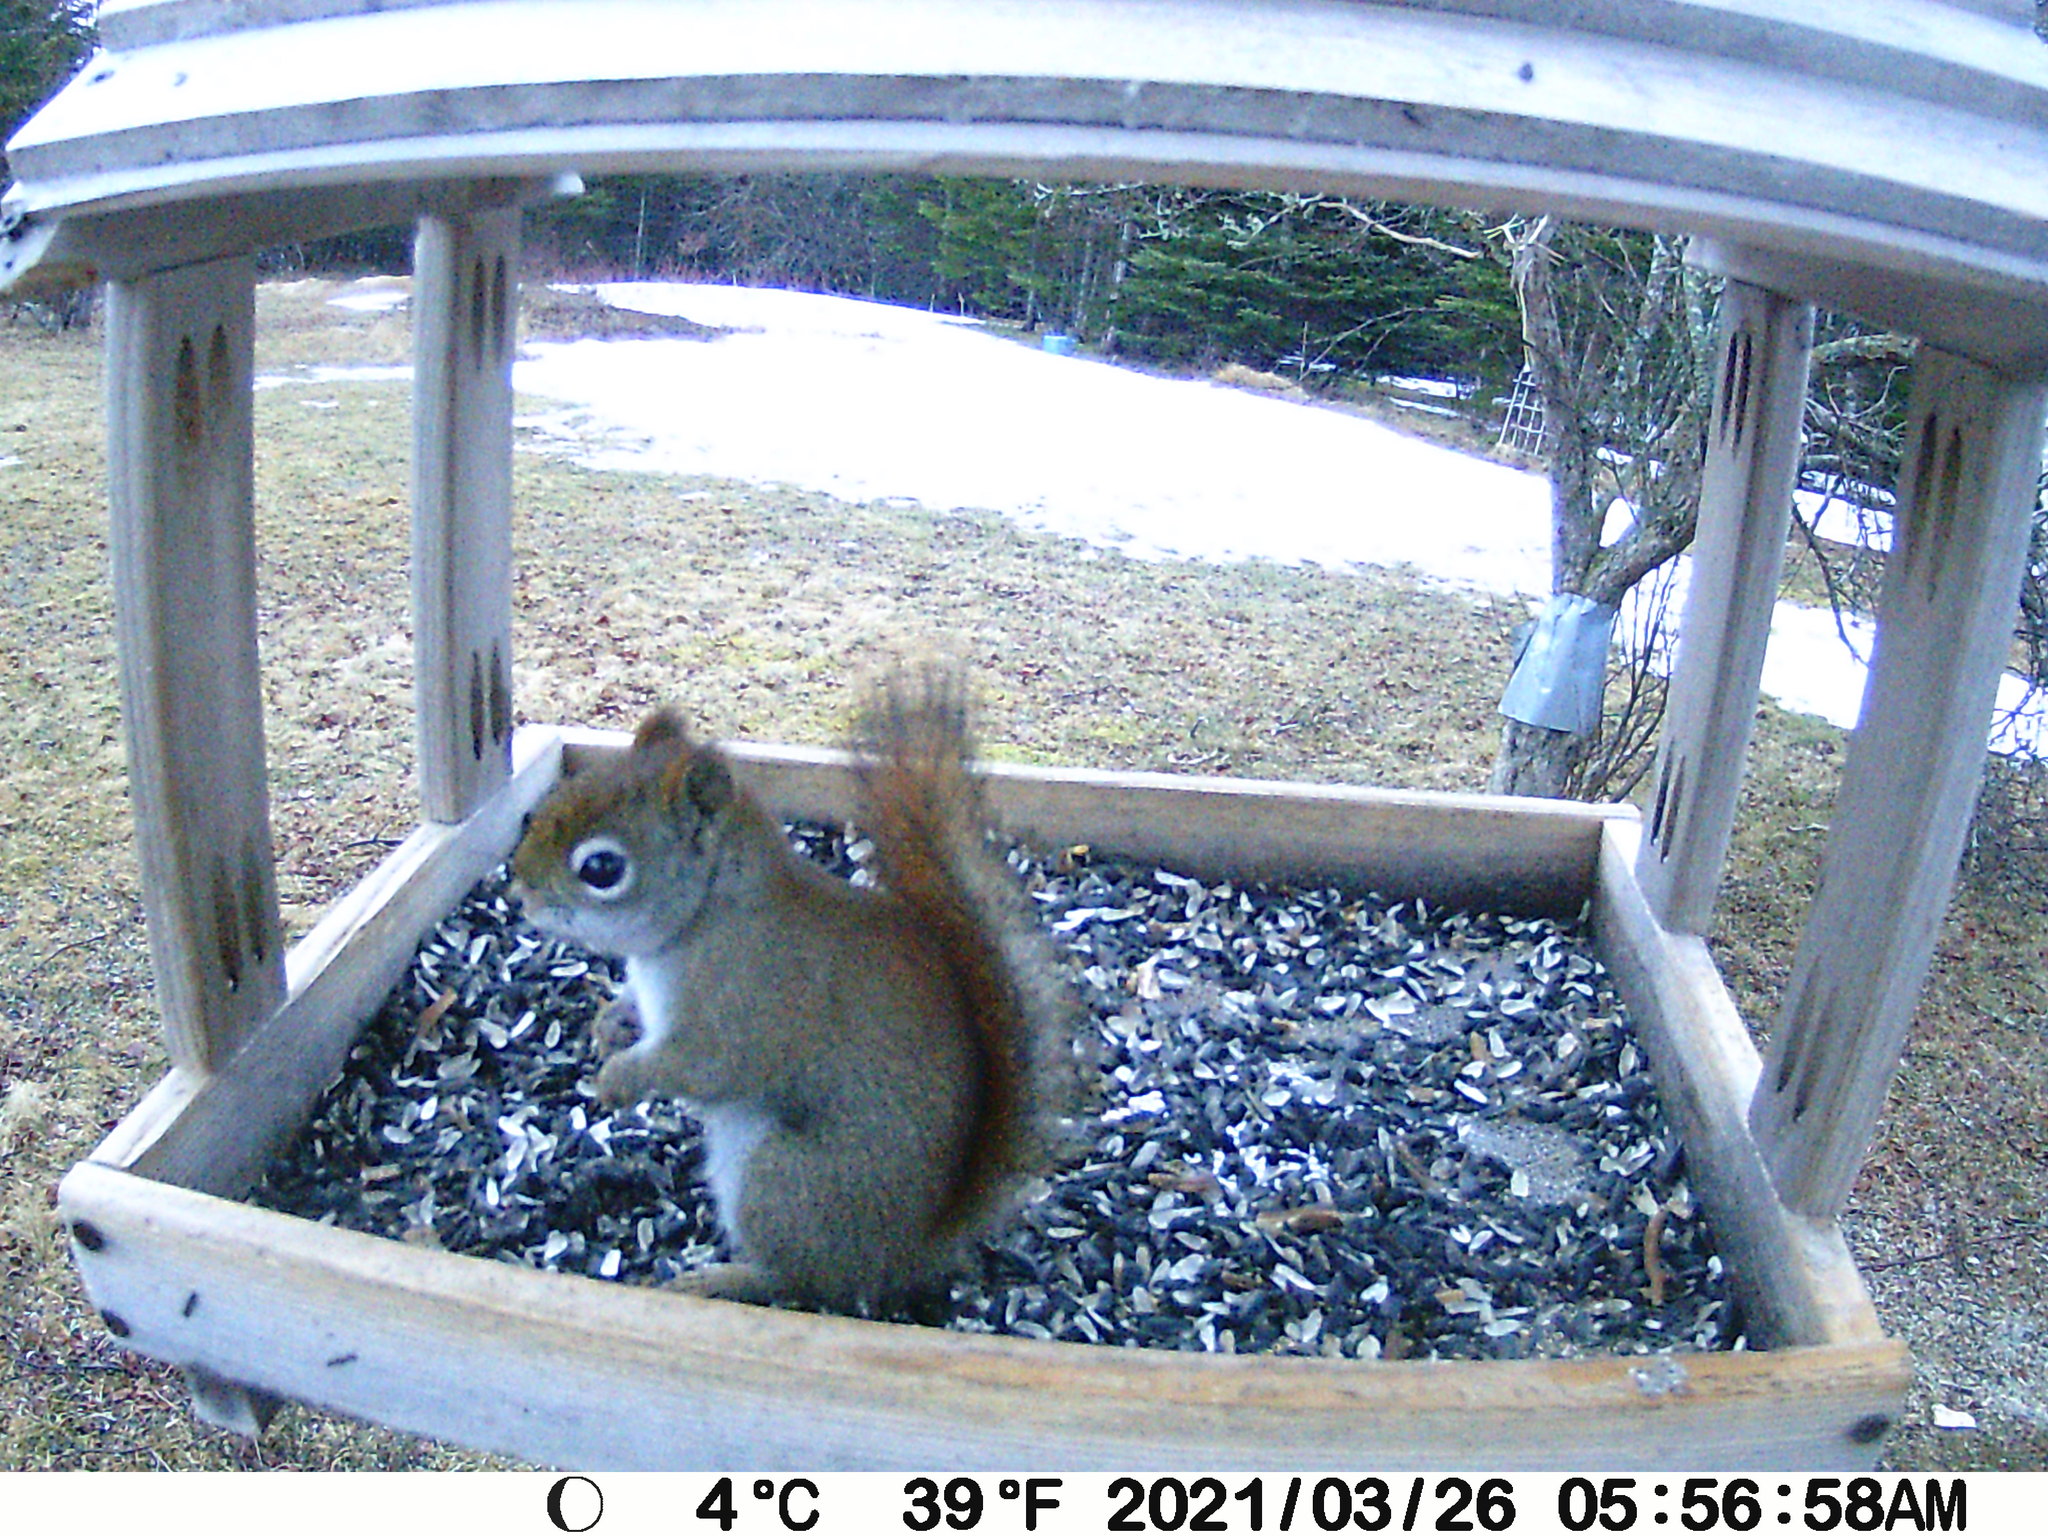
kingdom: Animalia
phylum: Chordata
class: Mammalia
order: Rodentia
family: Sciuridae
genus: Tamiasciurus
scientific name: Tamiasciurus hudsonicus
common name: Red squirrel
